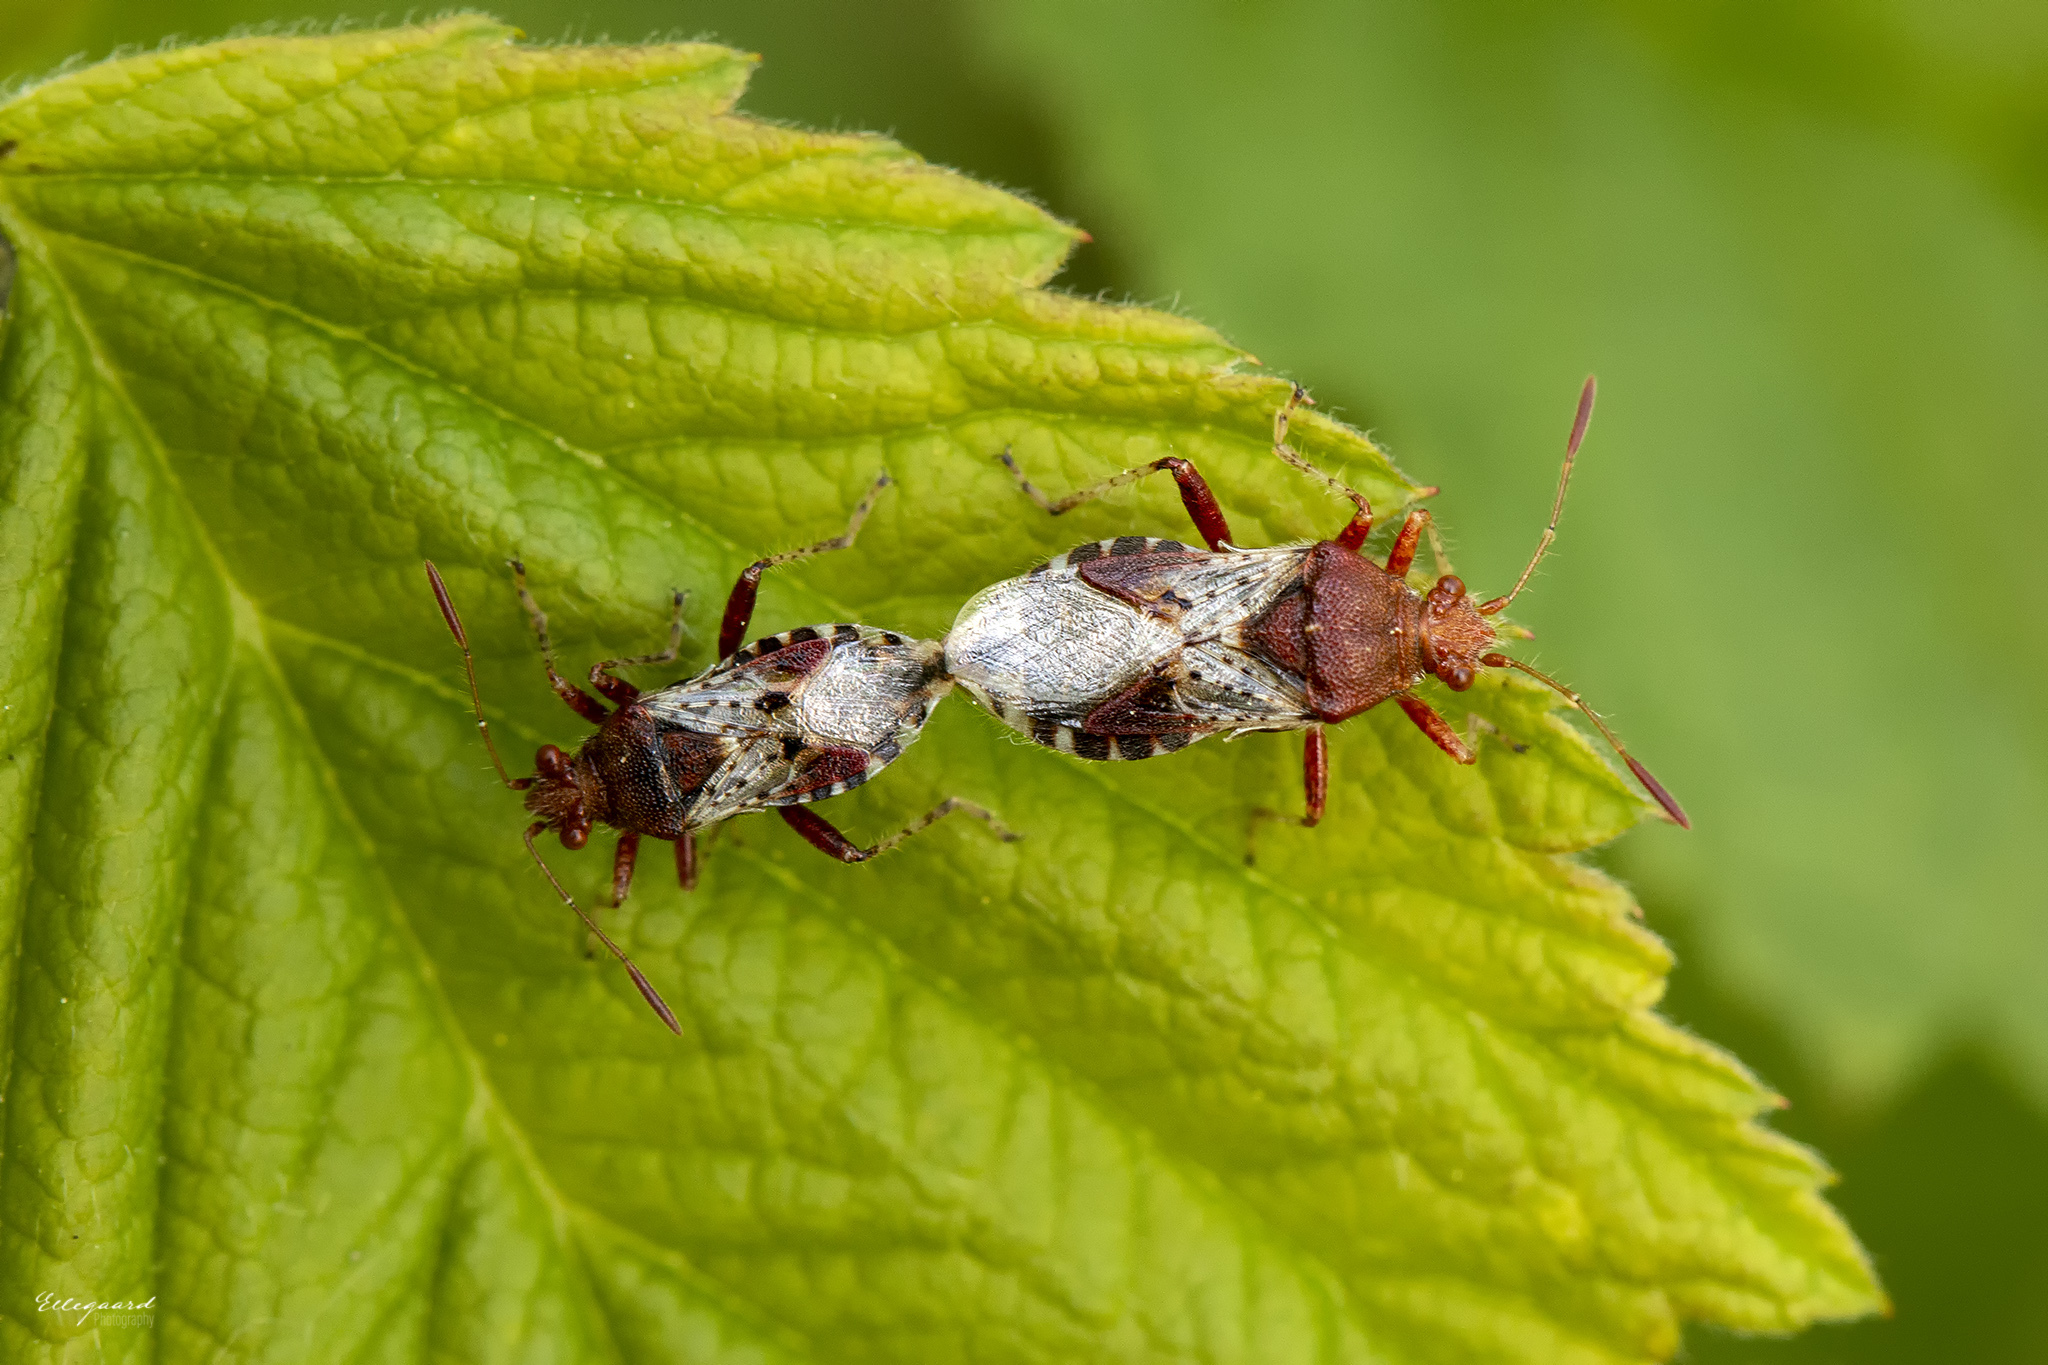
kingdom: Animalia
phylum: Arthropoda
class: Insecta
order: Hemiptera
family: Rhopalidae
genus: Rhopalus
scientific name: Rhopalus subrufus
